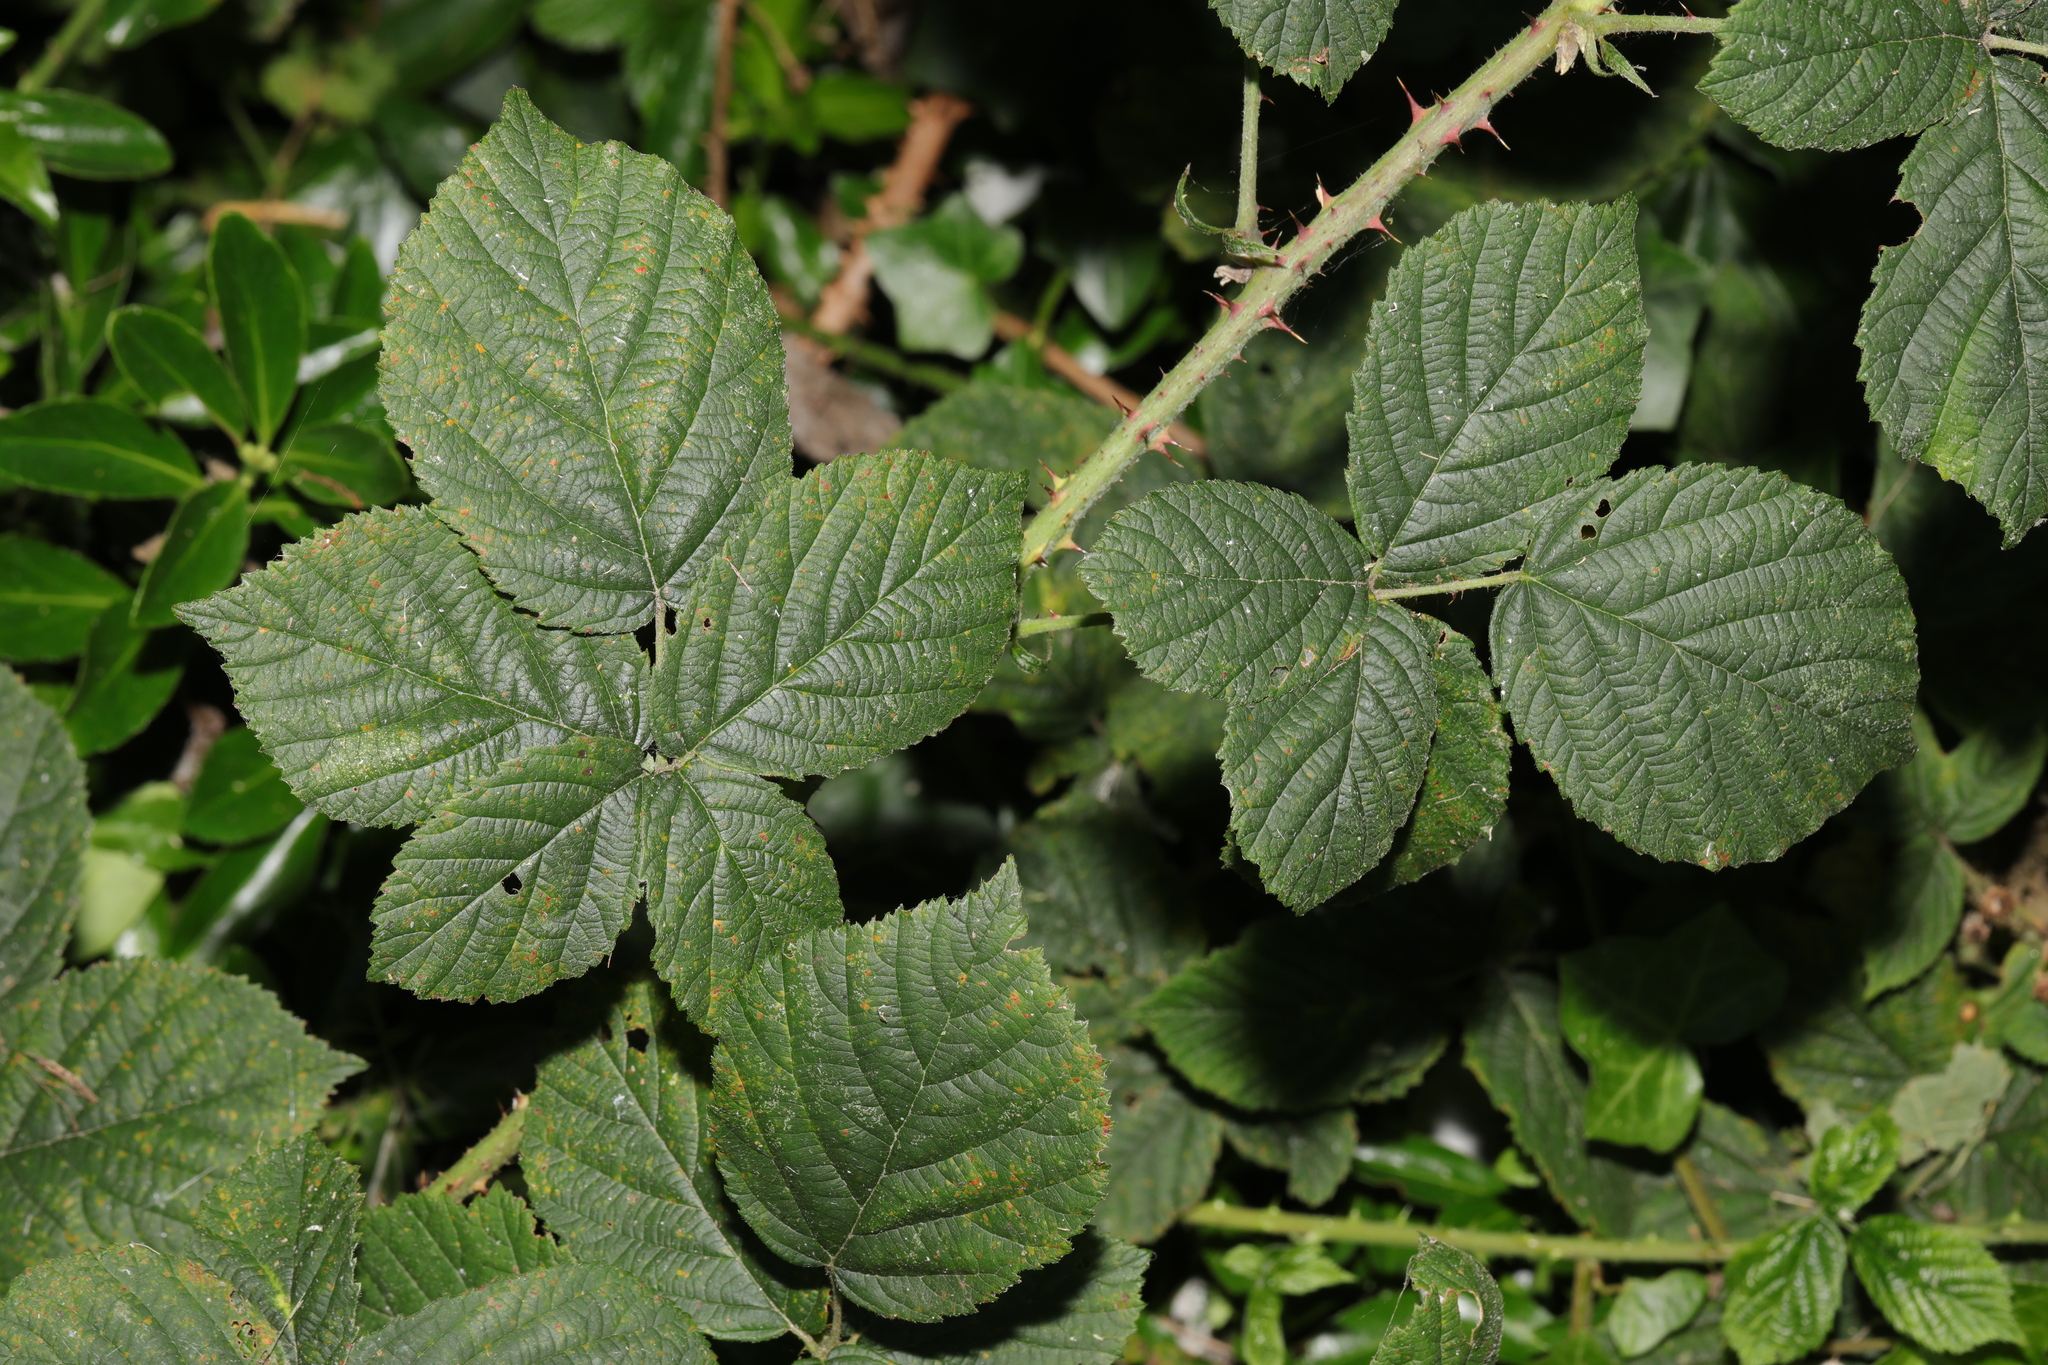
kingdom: Plantae
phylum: Tracheophyta
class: Magnoliopsida
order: Rosales
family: Rosaceae
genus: Rubus
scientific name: Rubus horrefactus
